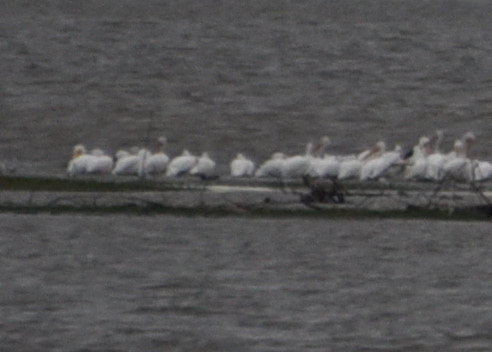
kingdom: Animalia
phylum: Chordata
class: Aves
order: Pelecaniformes
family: Pelecanidae
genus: Pelecanus
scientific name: Pelecanus erythrorhynchos
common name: American white pelican
